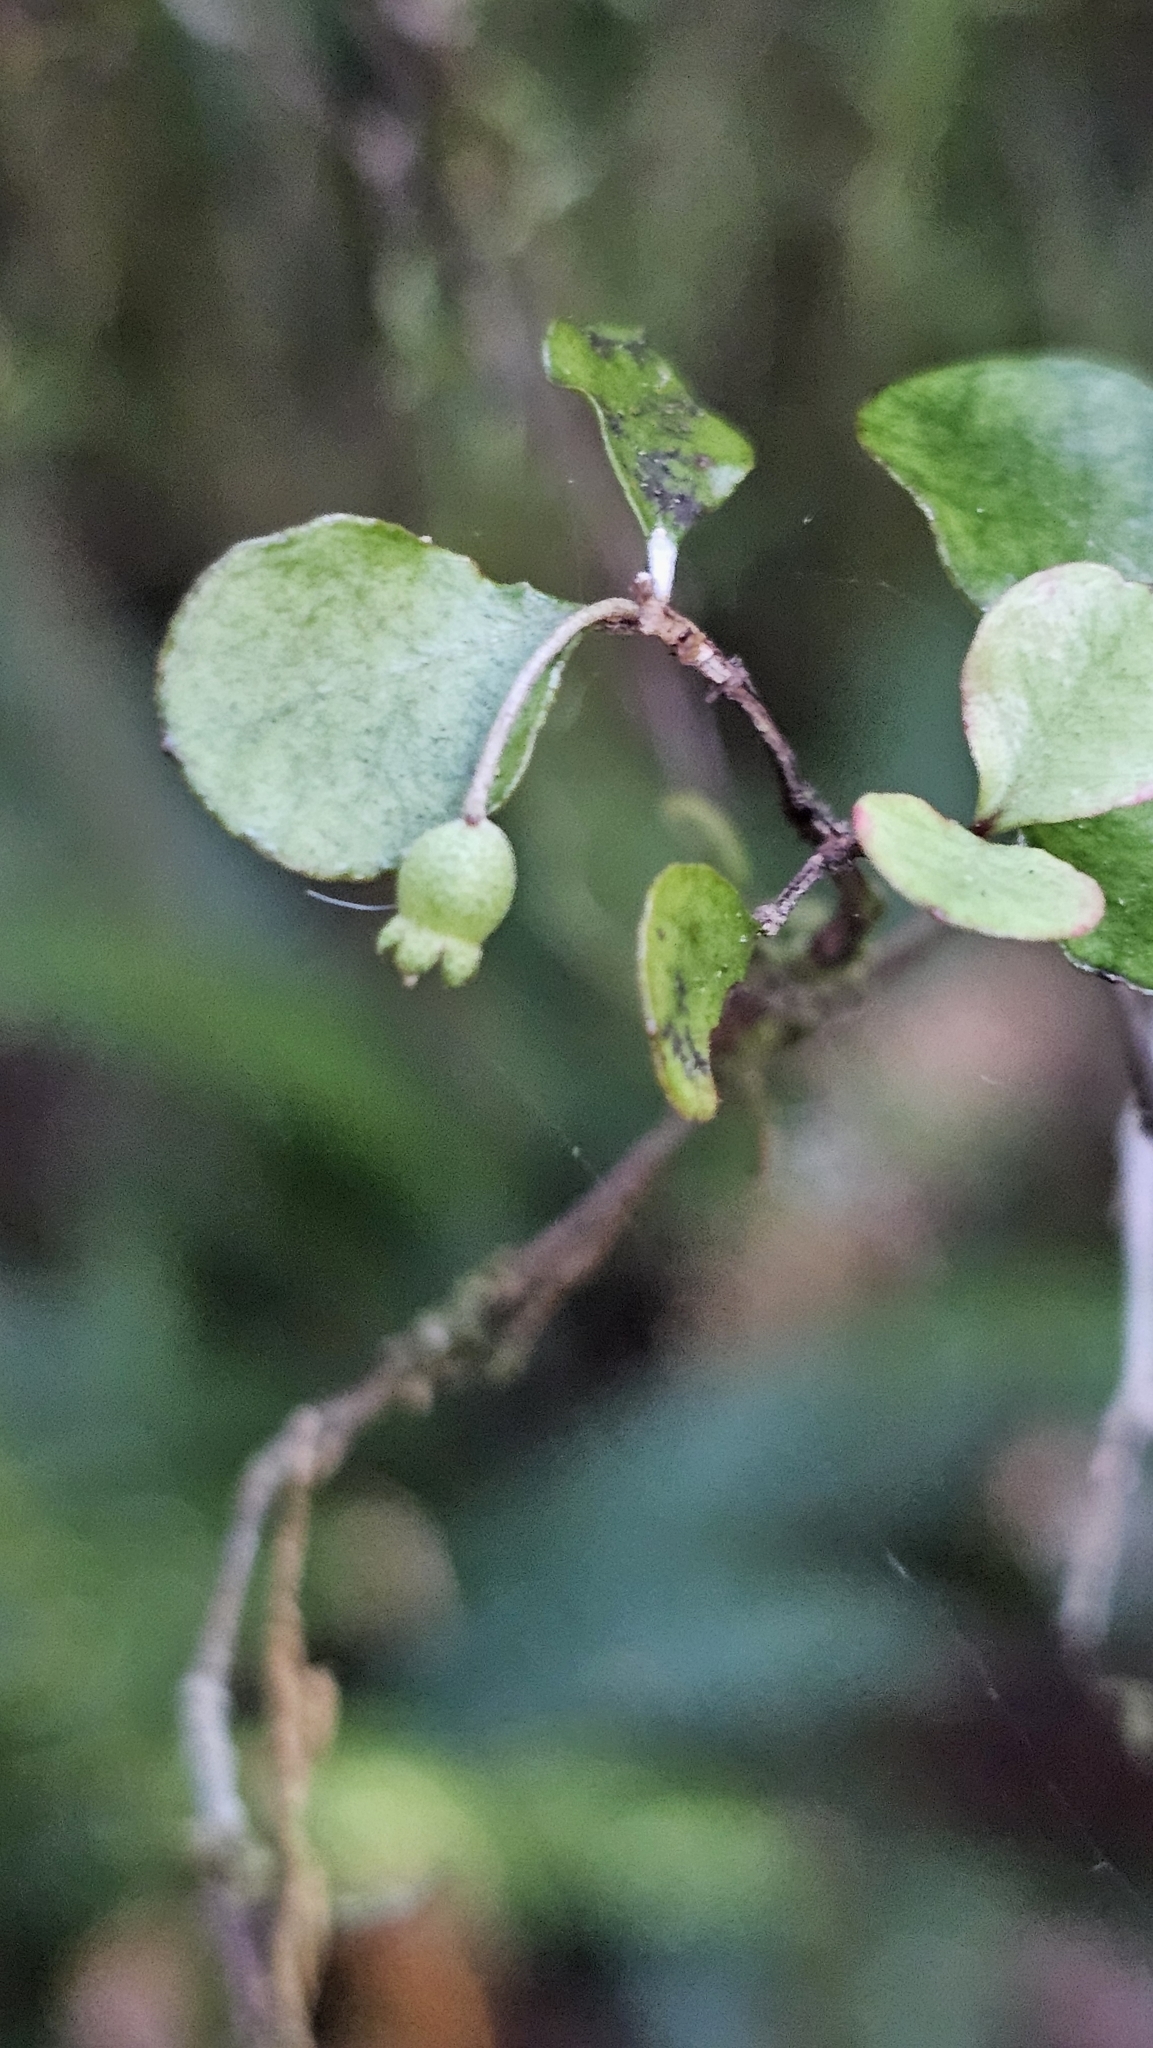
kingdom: Plantae
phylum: Tracheophyta
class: Magnoliopsida
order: Myrtales
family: Myrtaceae
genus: Neomyrtus
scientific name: Neomyrtus pedunculata
